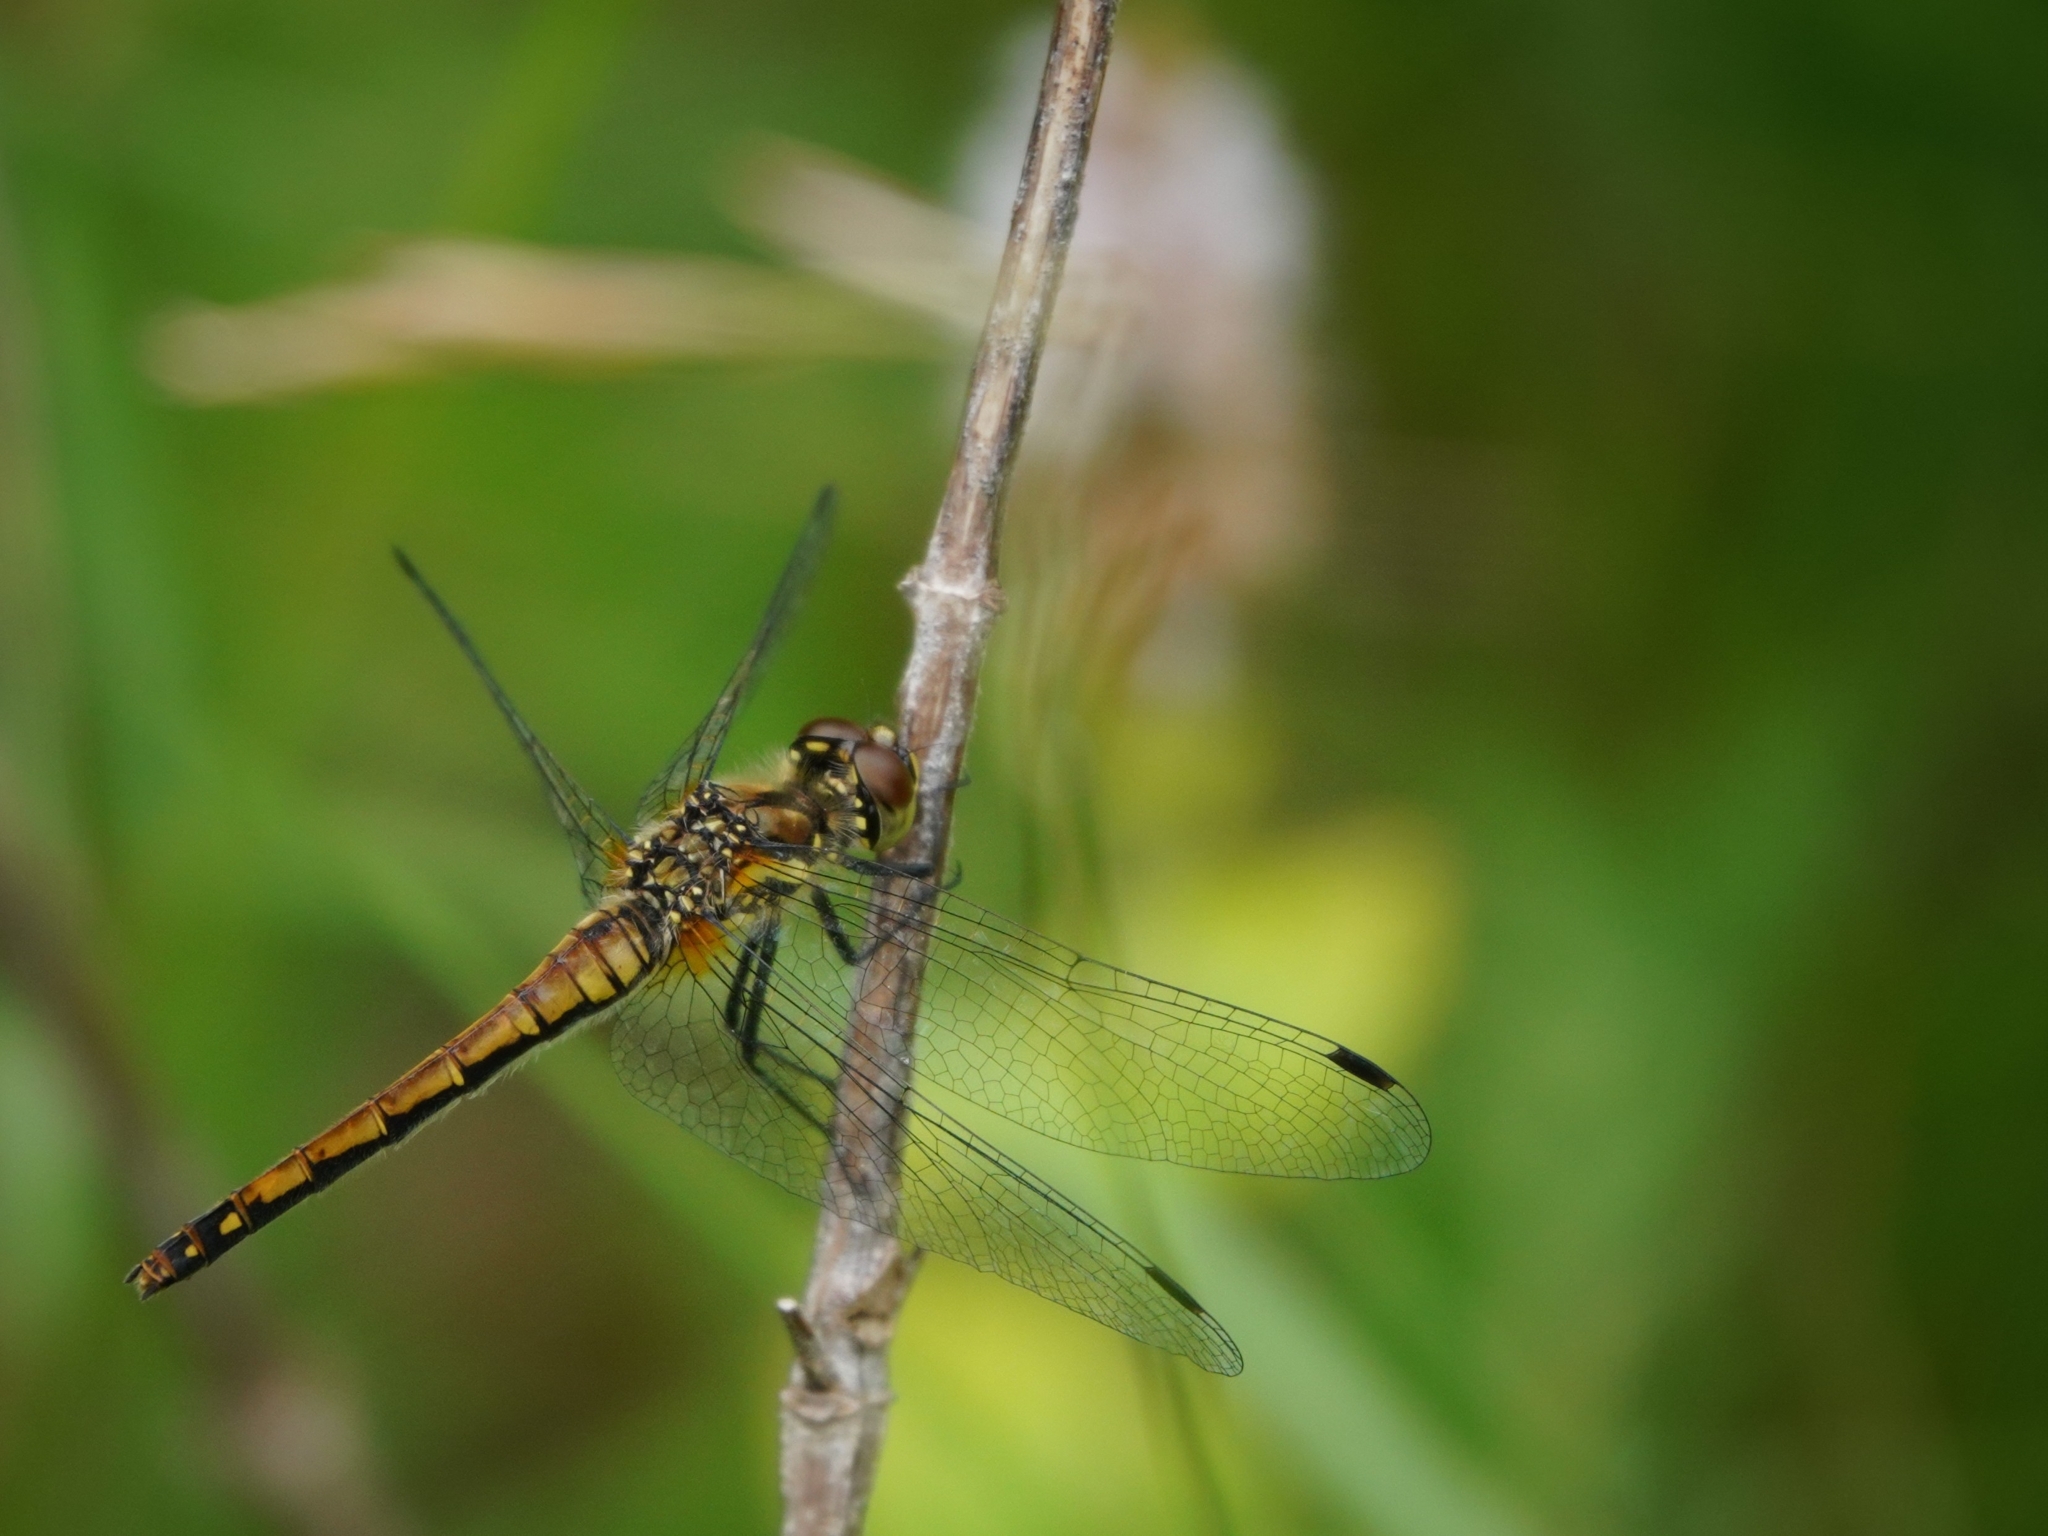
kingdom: Animalia
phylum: Arthropoda
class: Insecta
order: Odonata
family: Libellulidae
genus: Sympetrum
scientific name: Sympetrum danae
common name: Black darter
